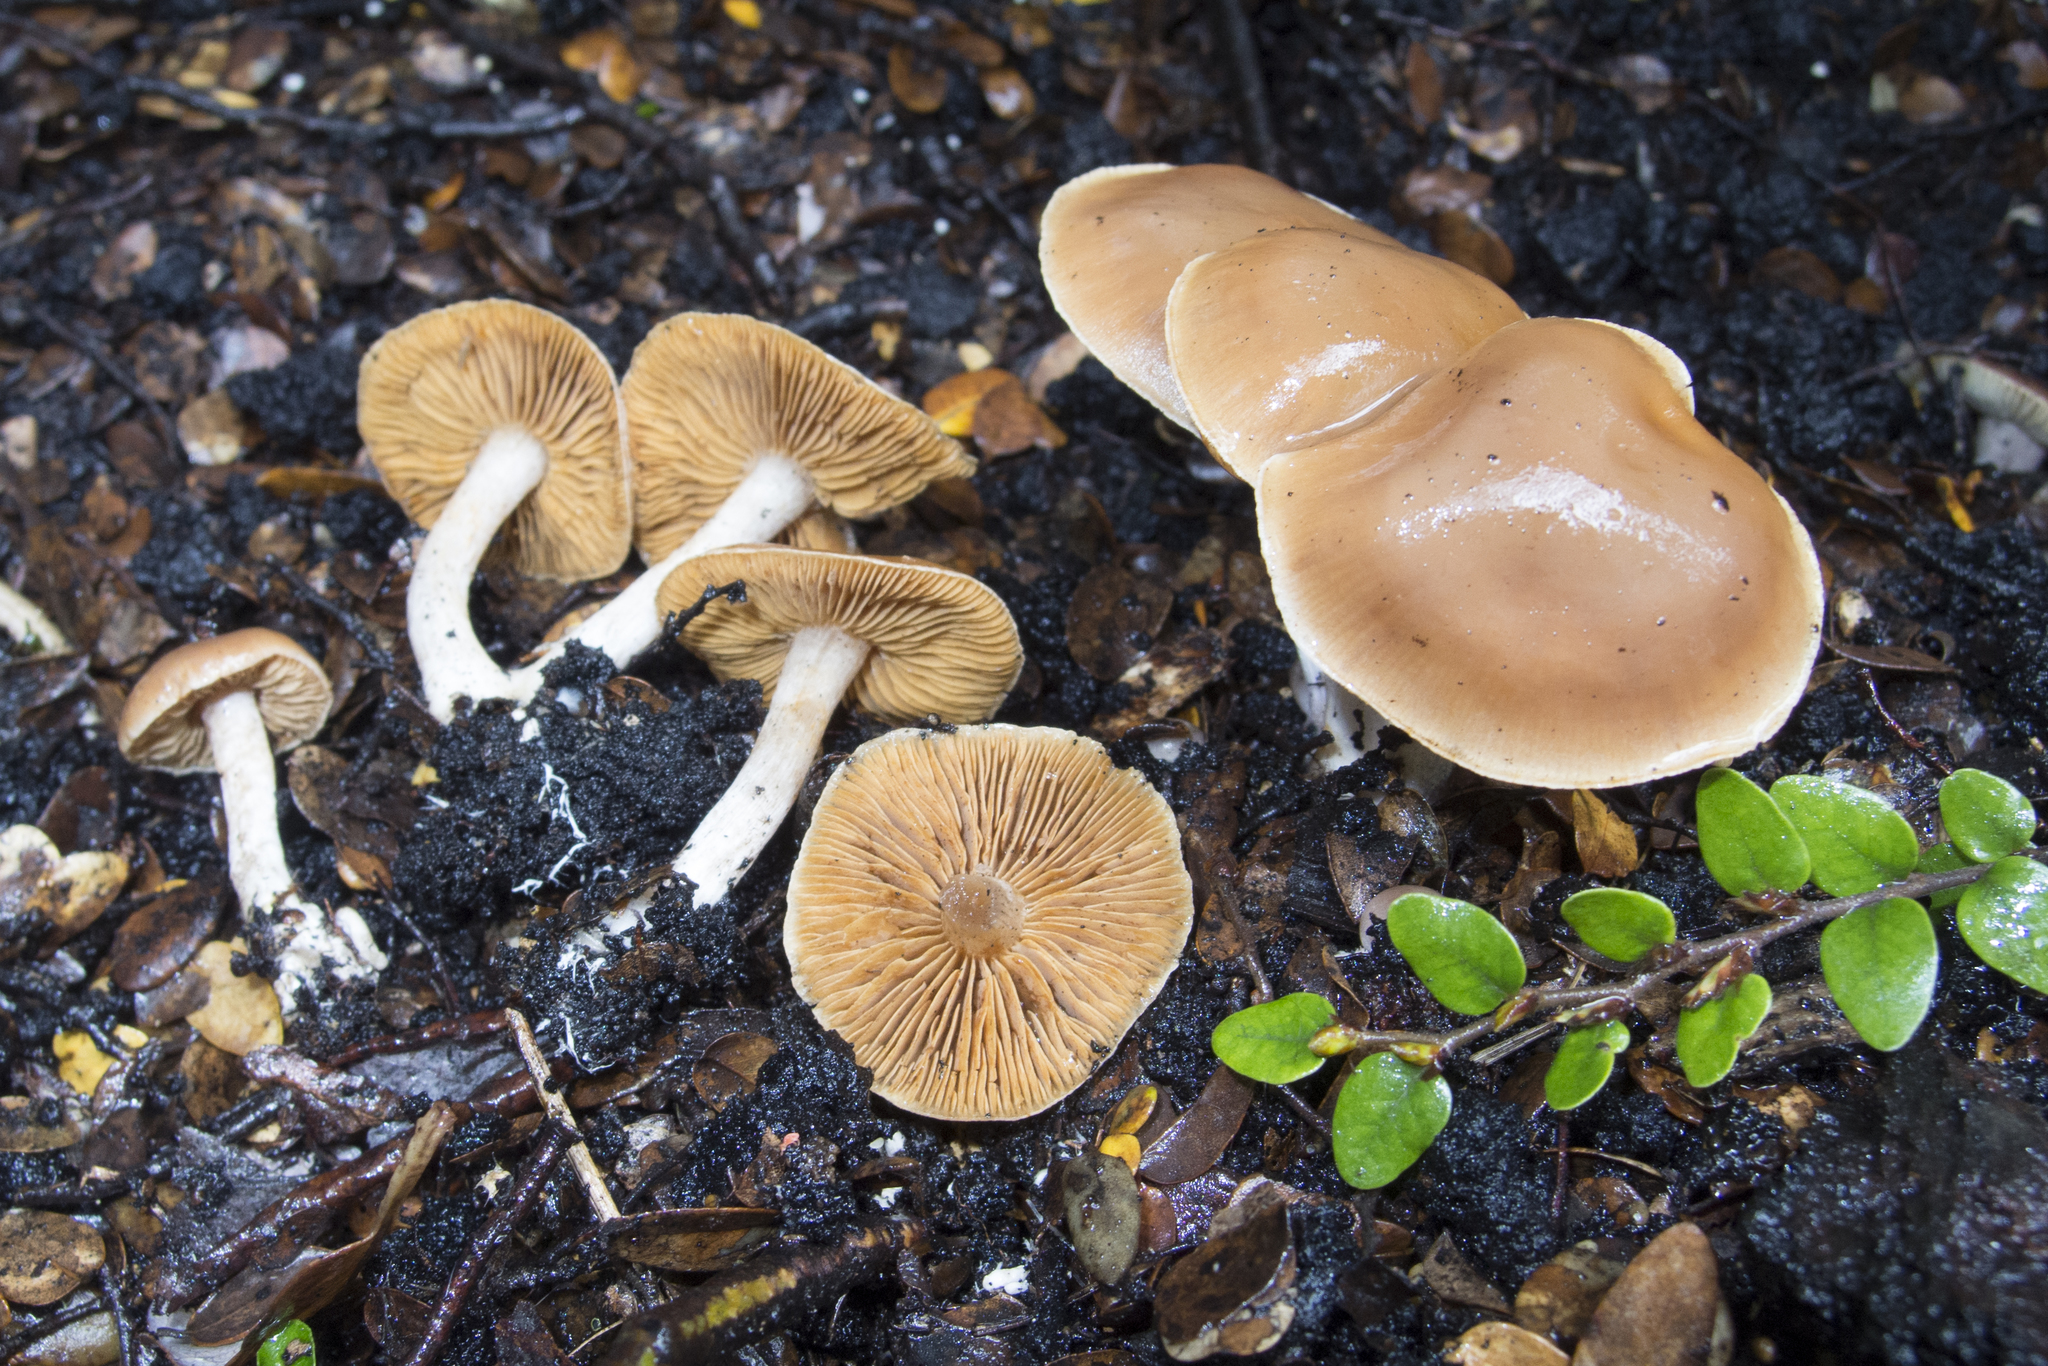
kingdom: Fungi
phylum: Basidiomycota
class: Agaricomycetes
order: Agaricales
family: Cortinariaceae
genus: Cortinarius
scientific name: Cortinarius saturniorum
